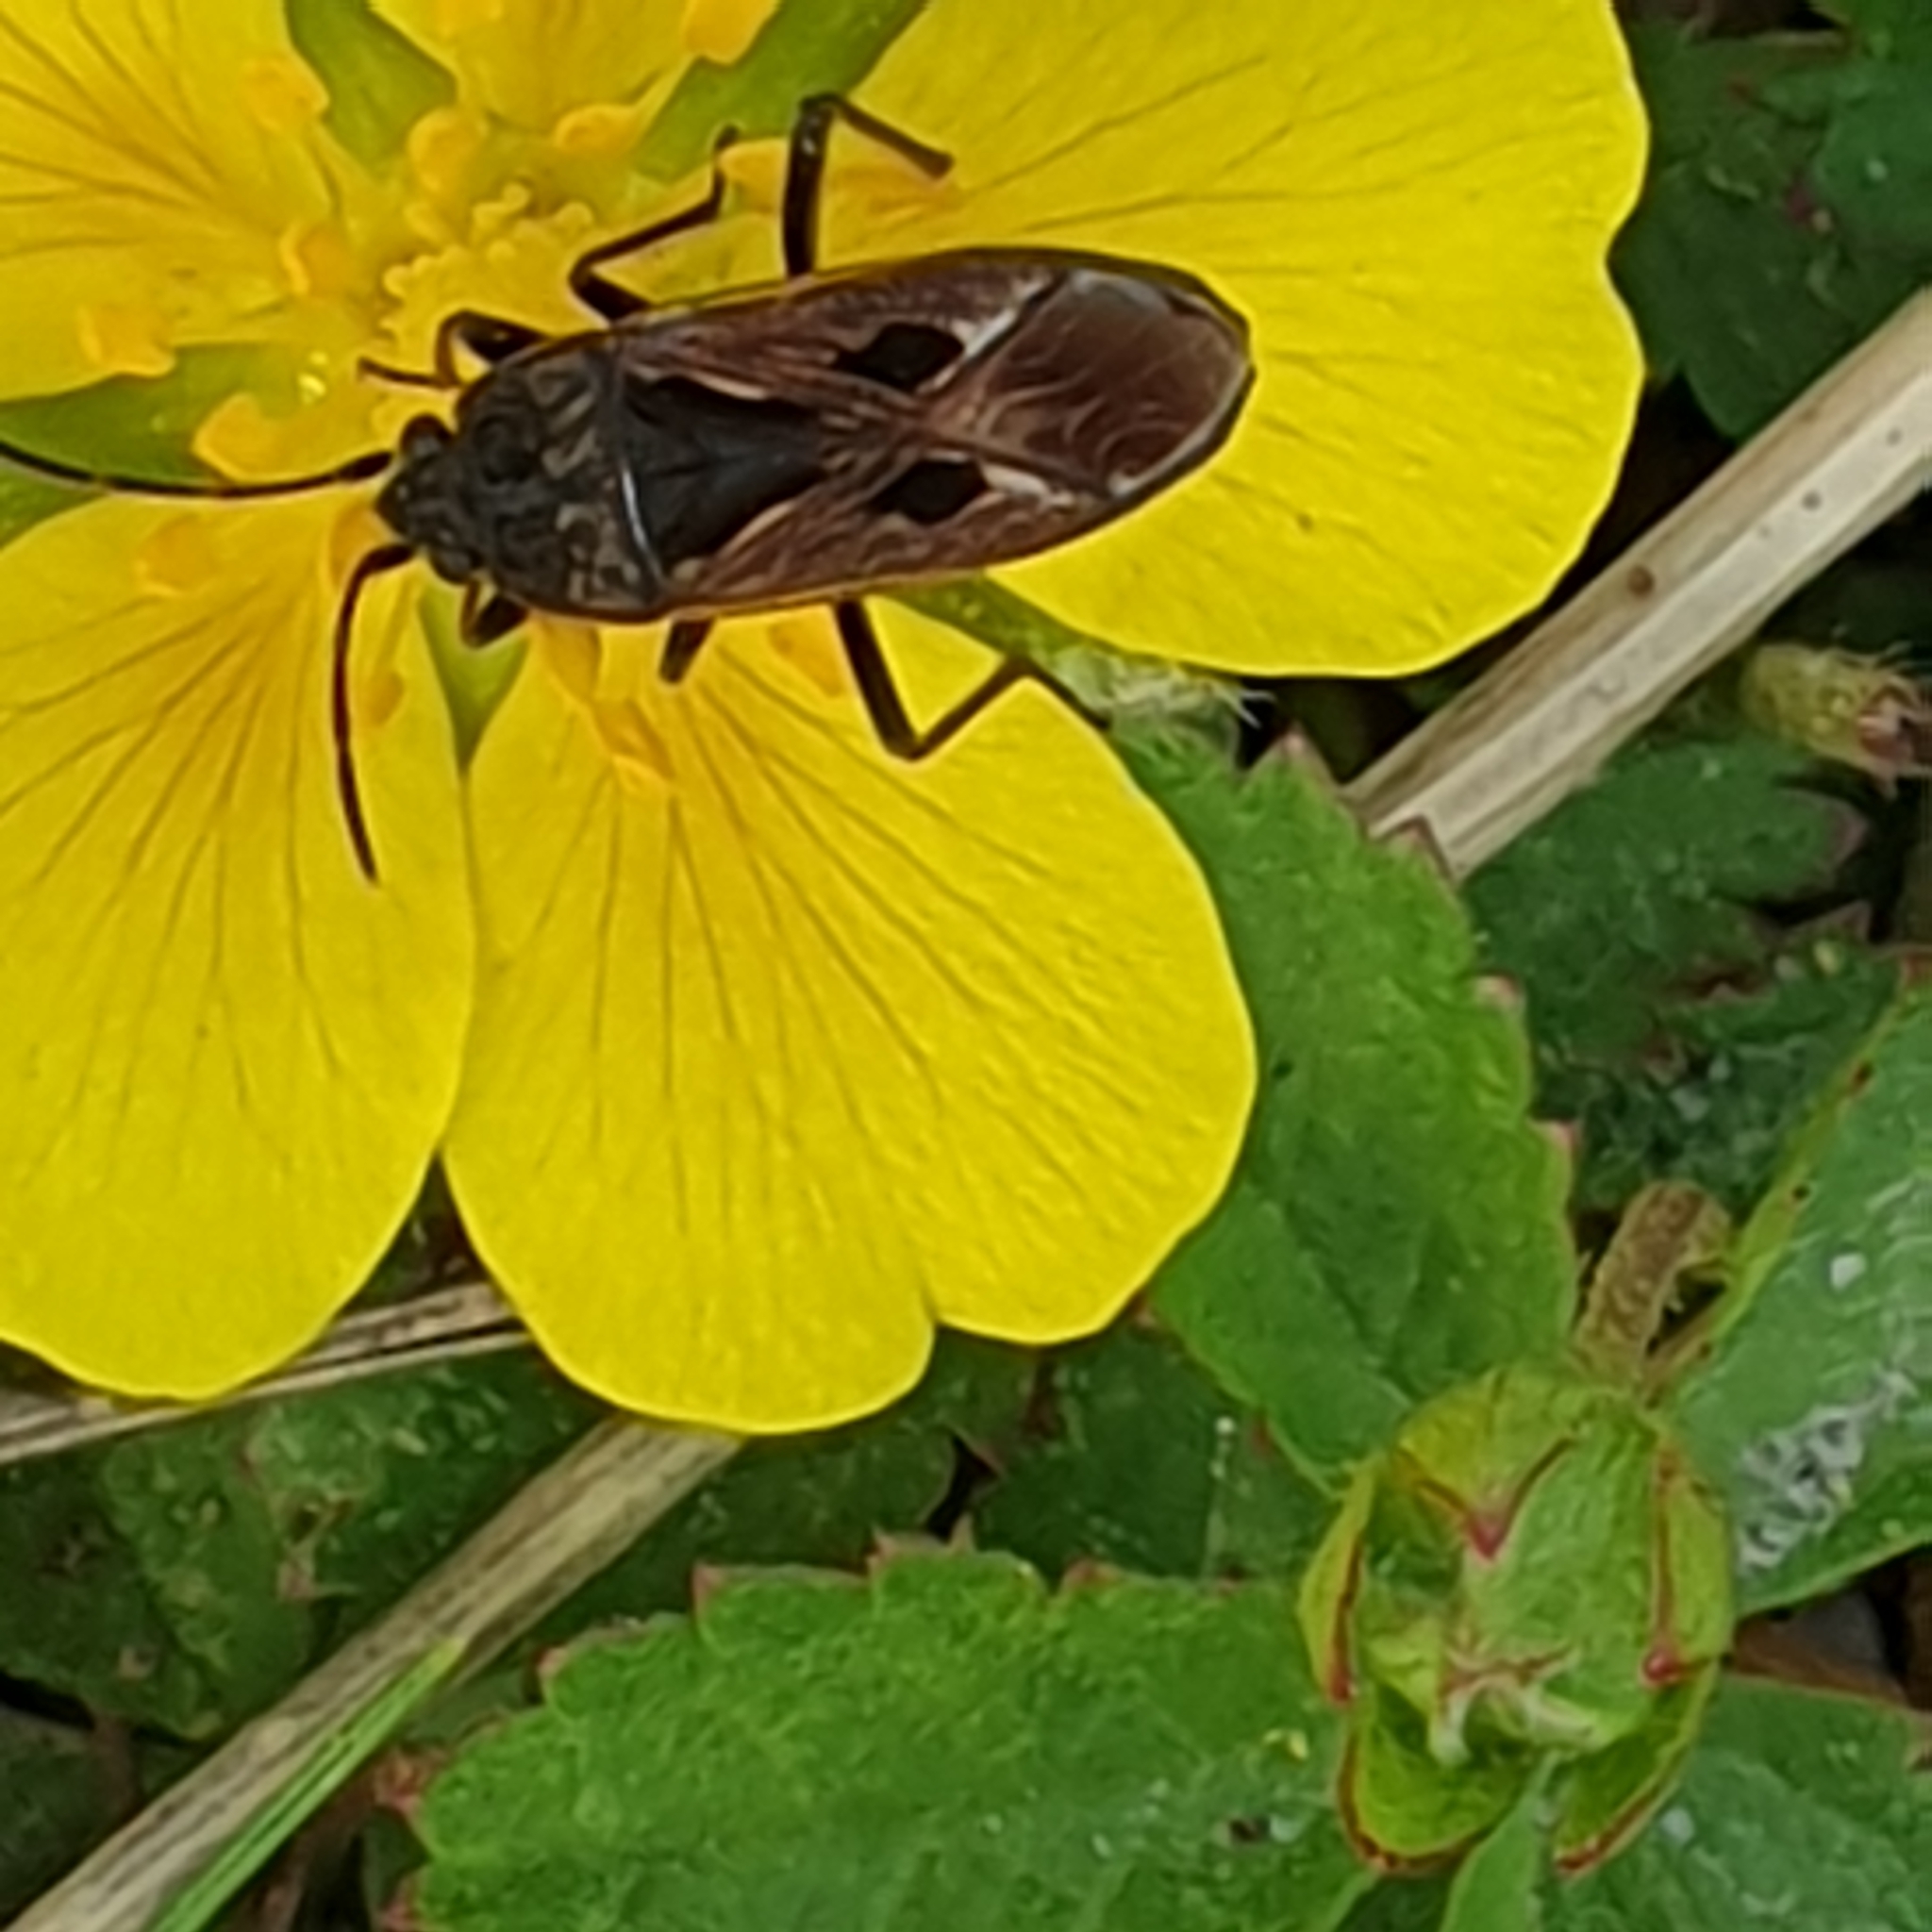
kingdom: Animalia
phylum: Arthropoda
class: Insecta
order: Hemiptera
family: Rhyparochromidae
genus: Rhyparochromus
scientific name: Rhyparochromus pini
